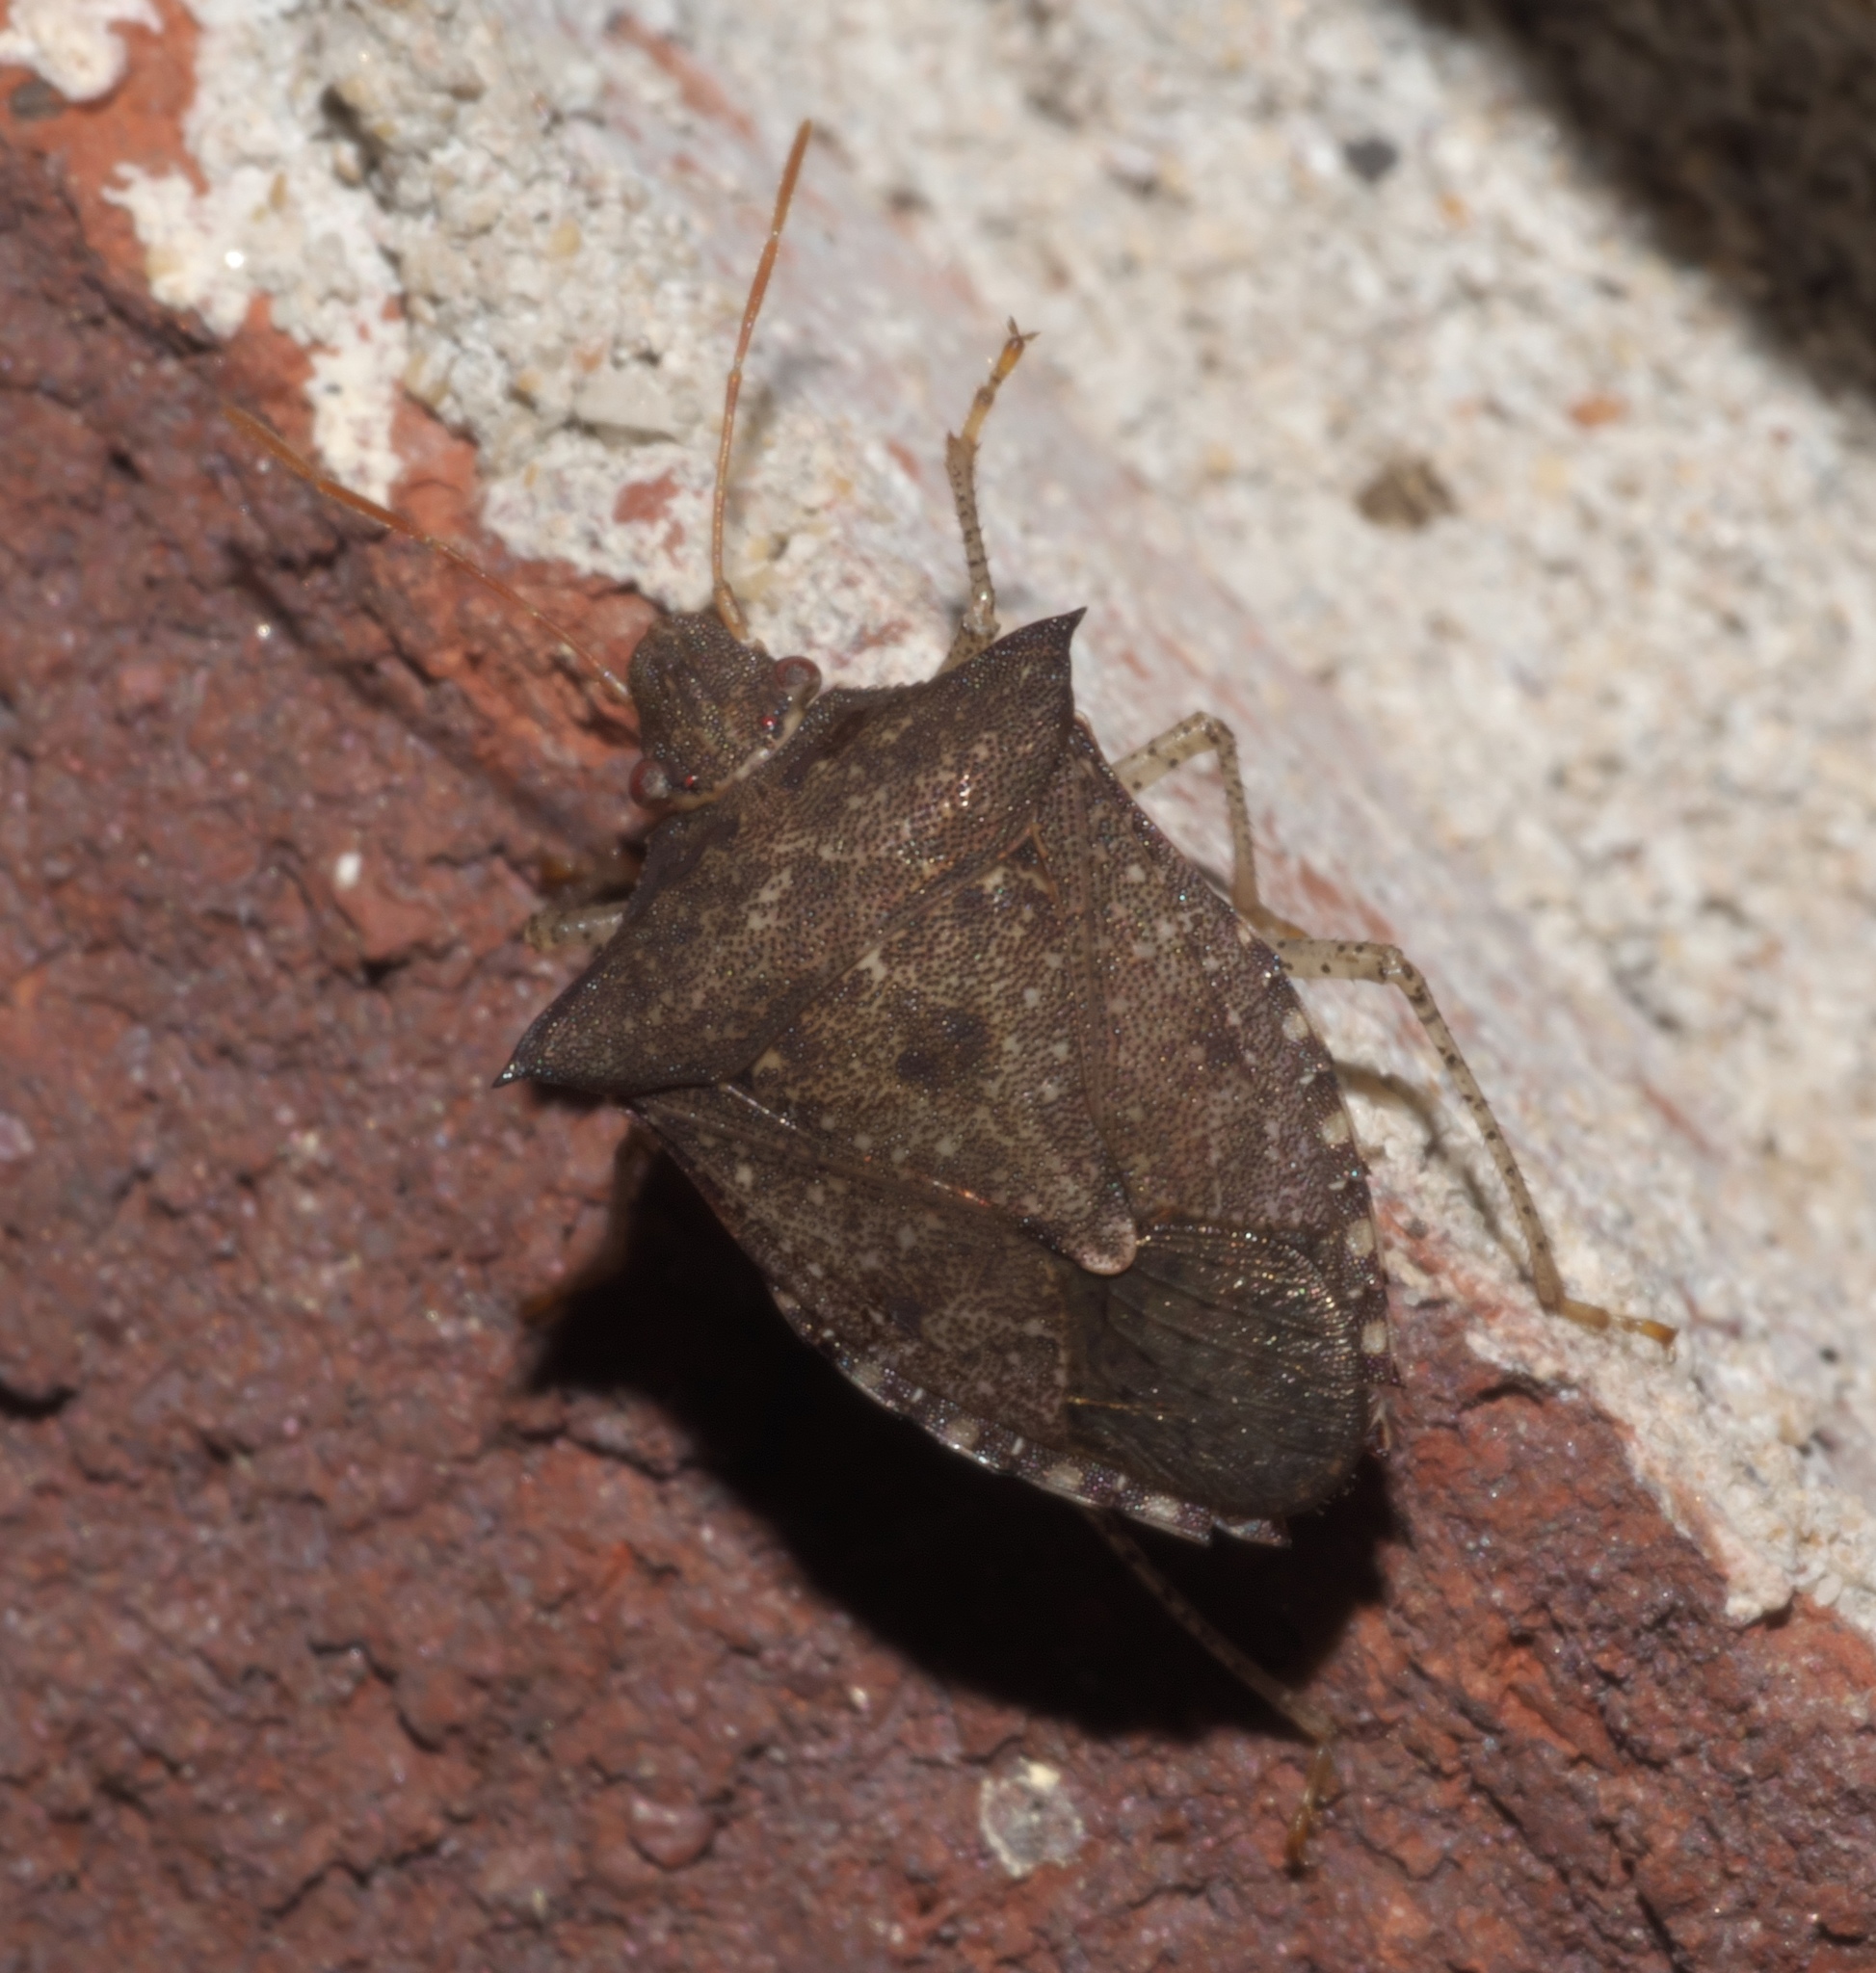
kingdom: Animalia
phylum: Arthropoda
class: Insecta
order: Hemiptera
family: Pentatomidae
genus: Euschistus
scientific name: Euschistus tristigmus
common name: Dusky stink bug
